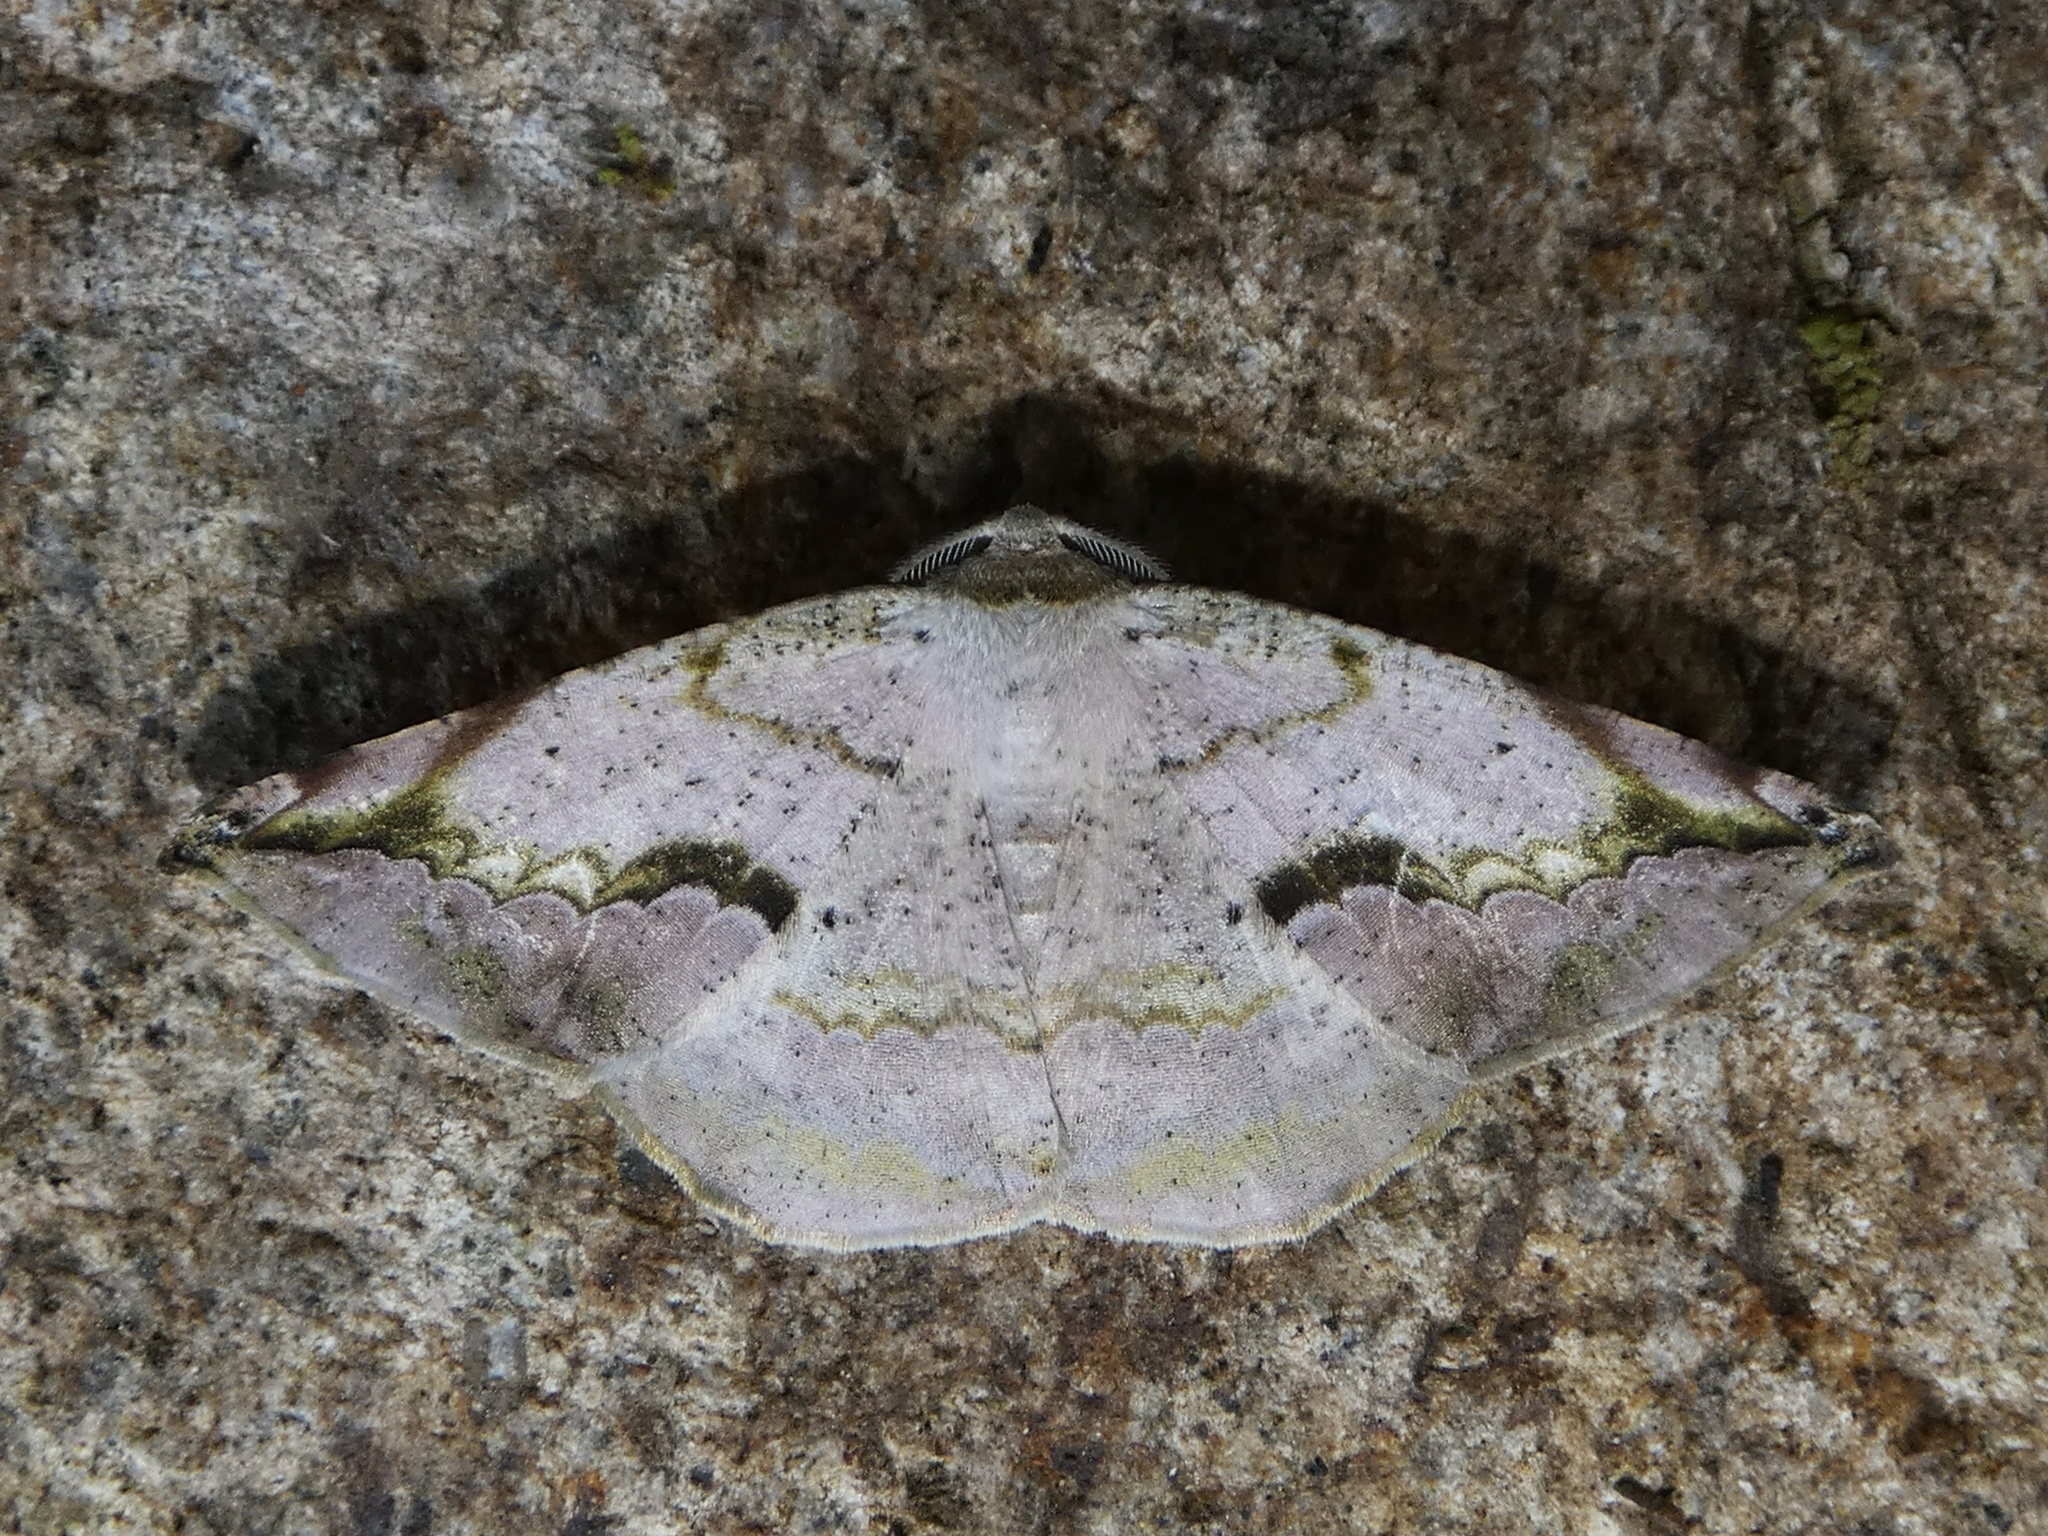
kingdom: Animalia
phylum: Arthropoda
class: Insecta
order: Lepidoptera
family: Geometridae
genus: Eusarca
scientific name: Eusarca nemora
